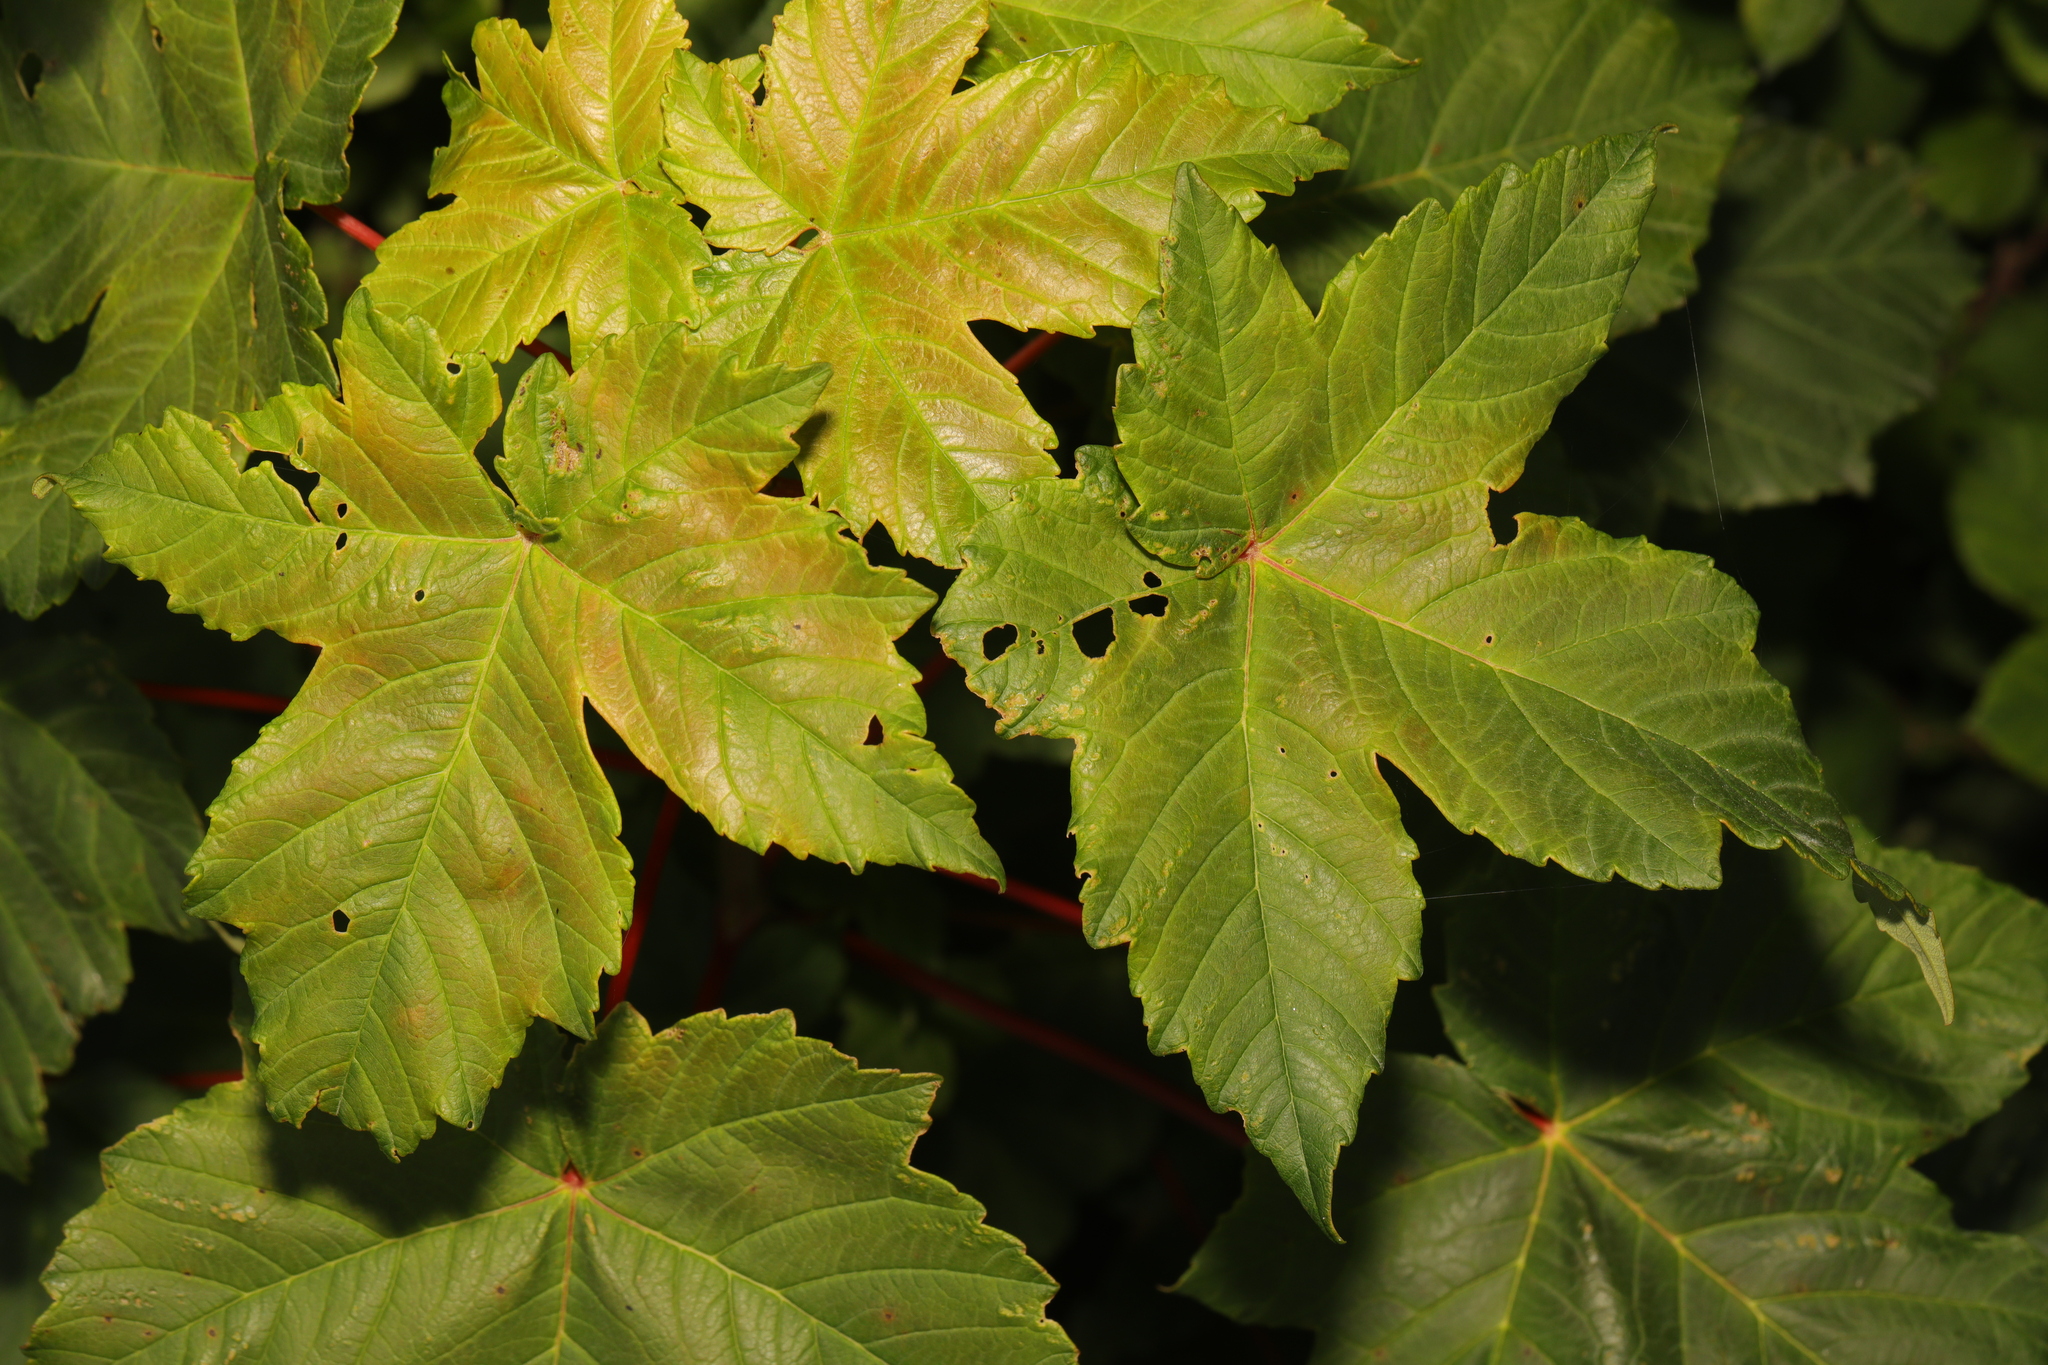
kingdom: Plantae
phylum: Tracheophyta
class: Magnoliopsida
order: Sapindales
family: Sapindaceae
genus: Acer
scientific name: Acer pseudoplatanus
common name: Sycamore
